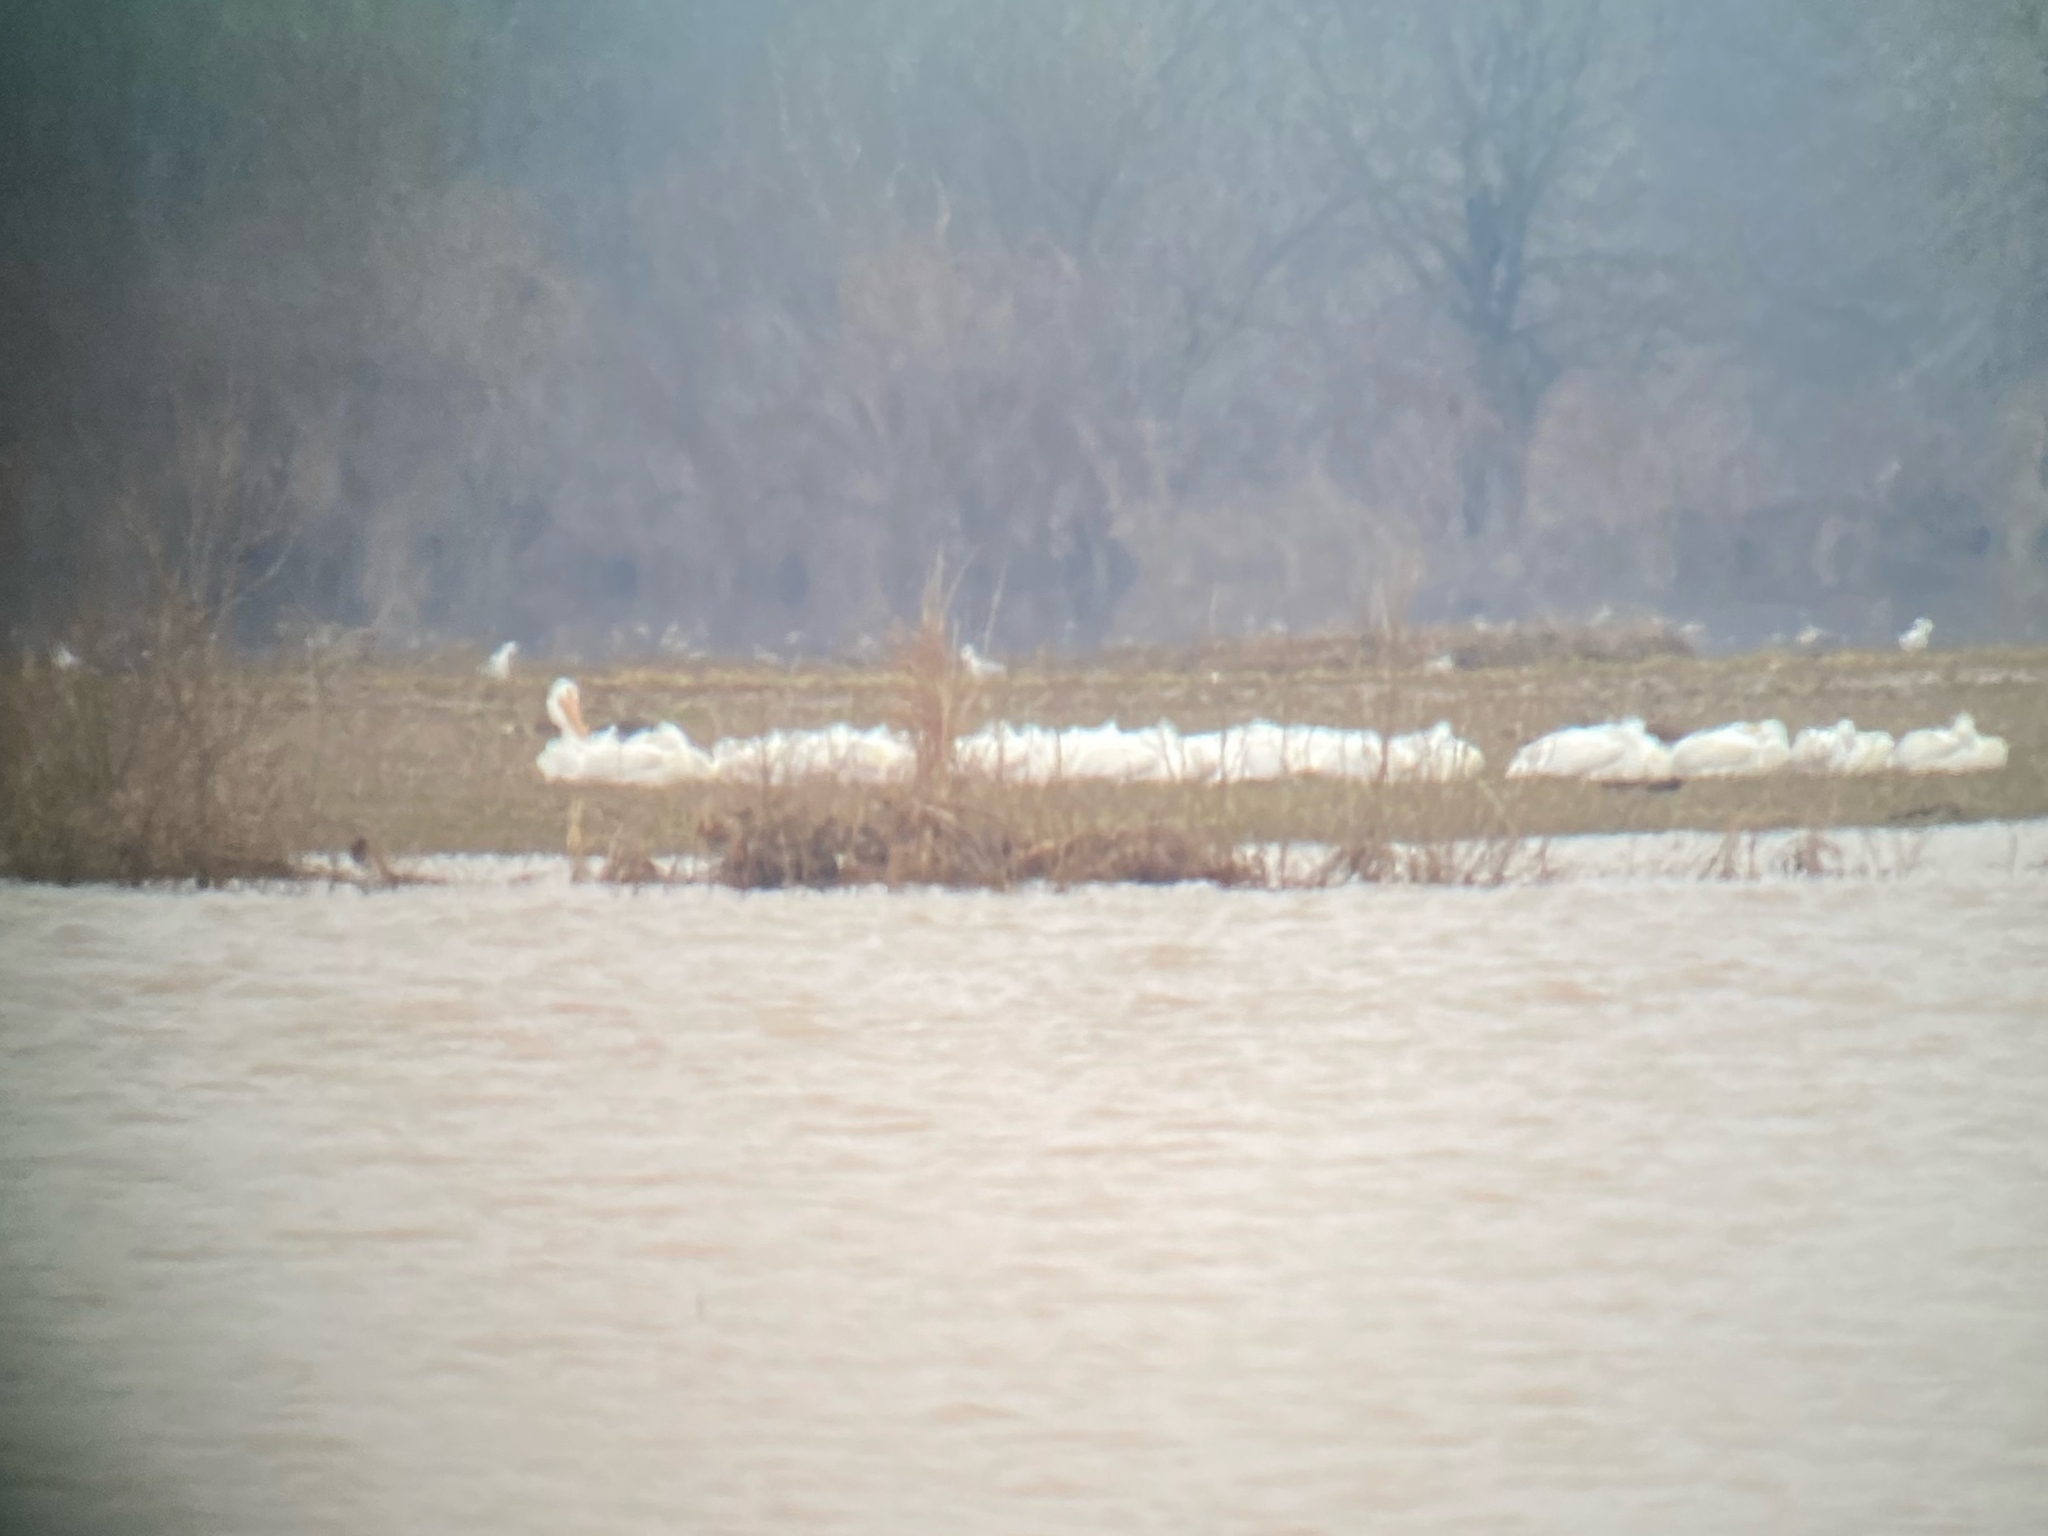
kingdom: Animalia
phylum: Chordata
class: Aves
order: Pelecaniformes
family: Pelecanidae
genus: Pelecanus
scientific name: Pelecanus erythrorhynchos
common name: American white pelican
